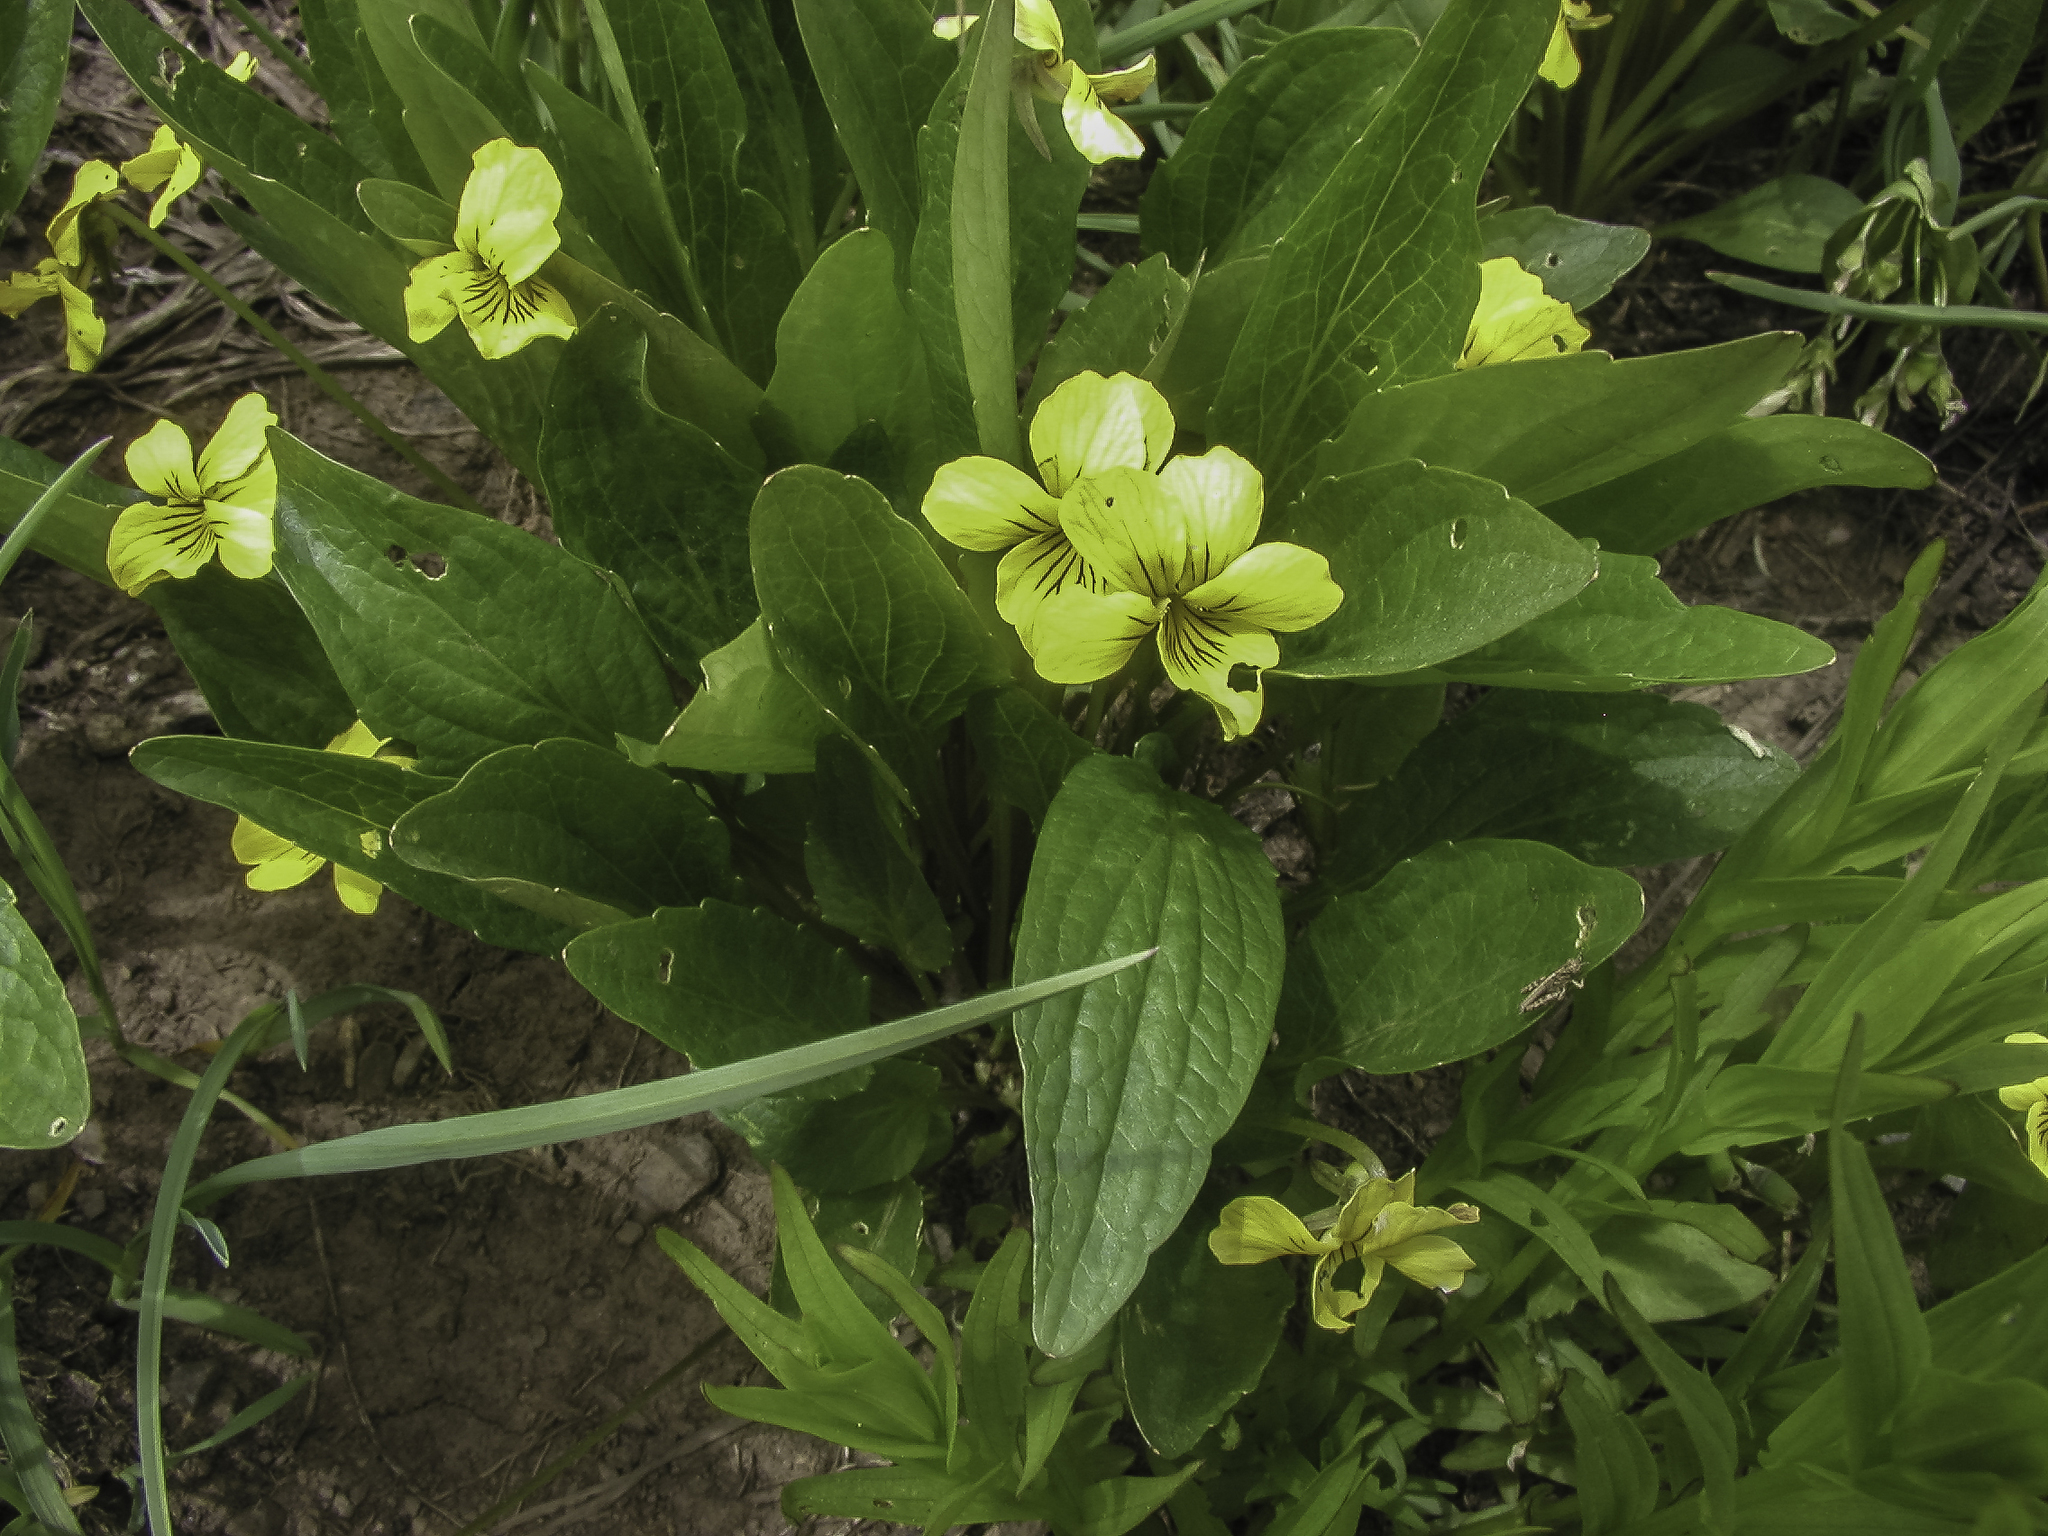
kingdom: Plantae
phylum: Tracheophyta
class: Magnoliopsida
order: Malpighiales
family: Violaceae
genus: Viola
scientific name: Viola nuttallii
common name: Yellow prairie violet
